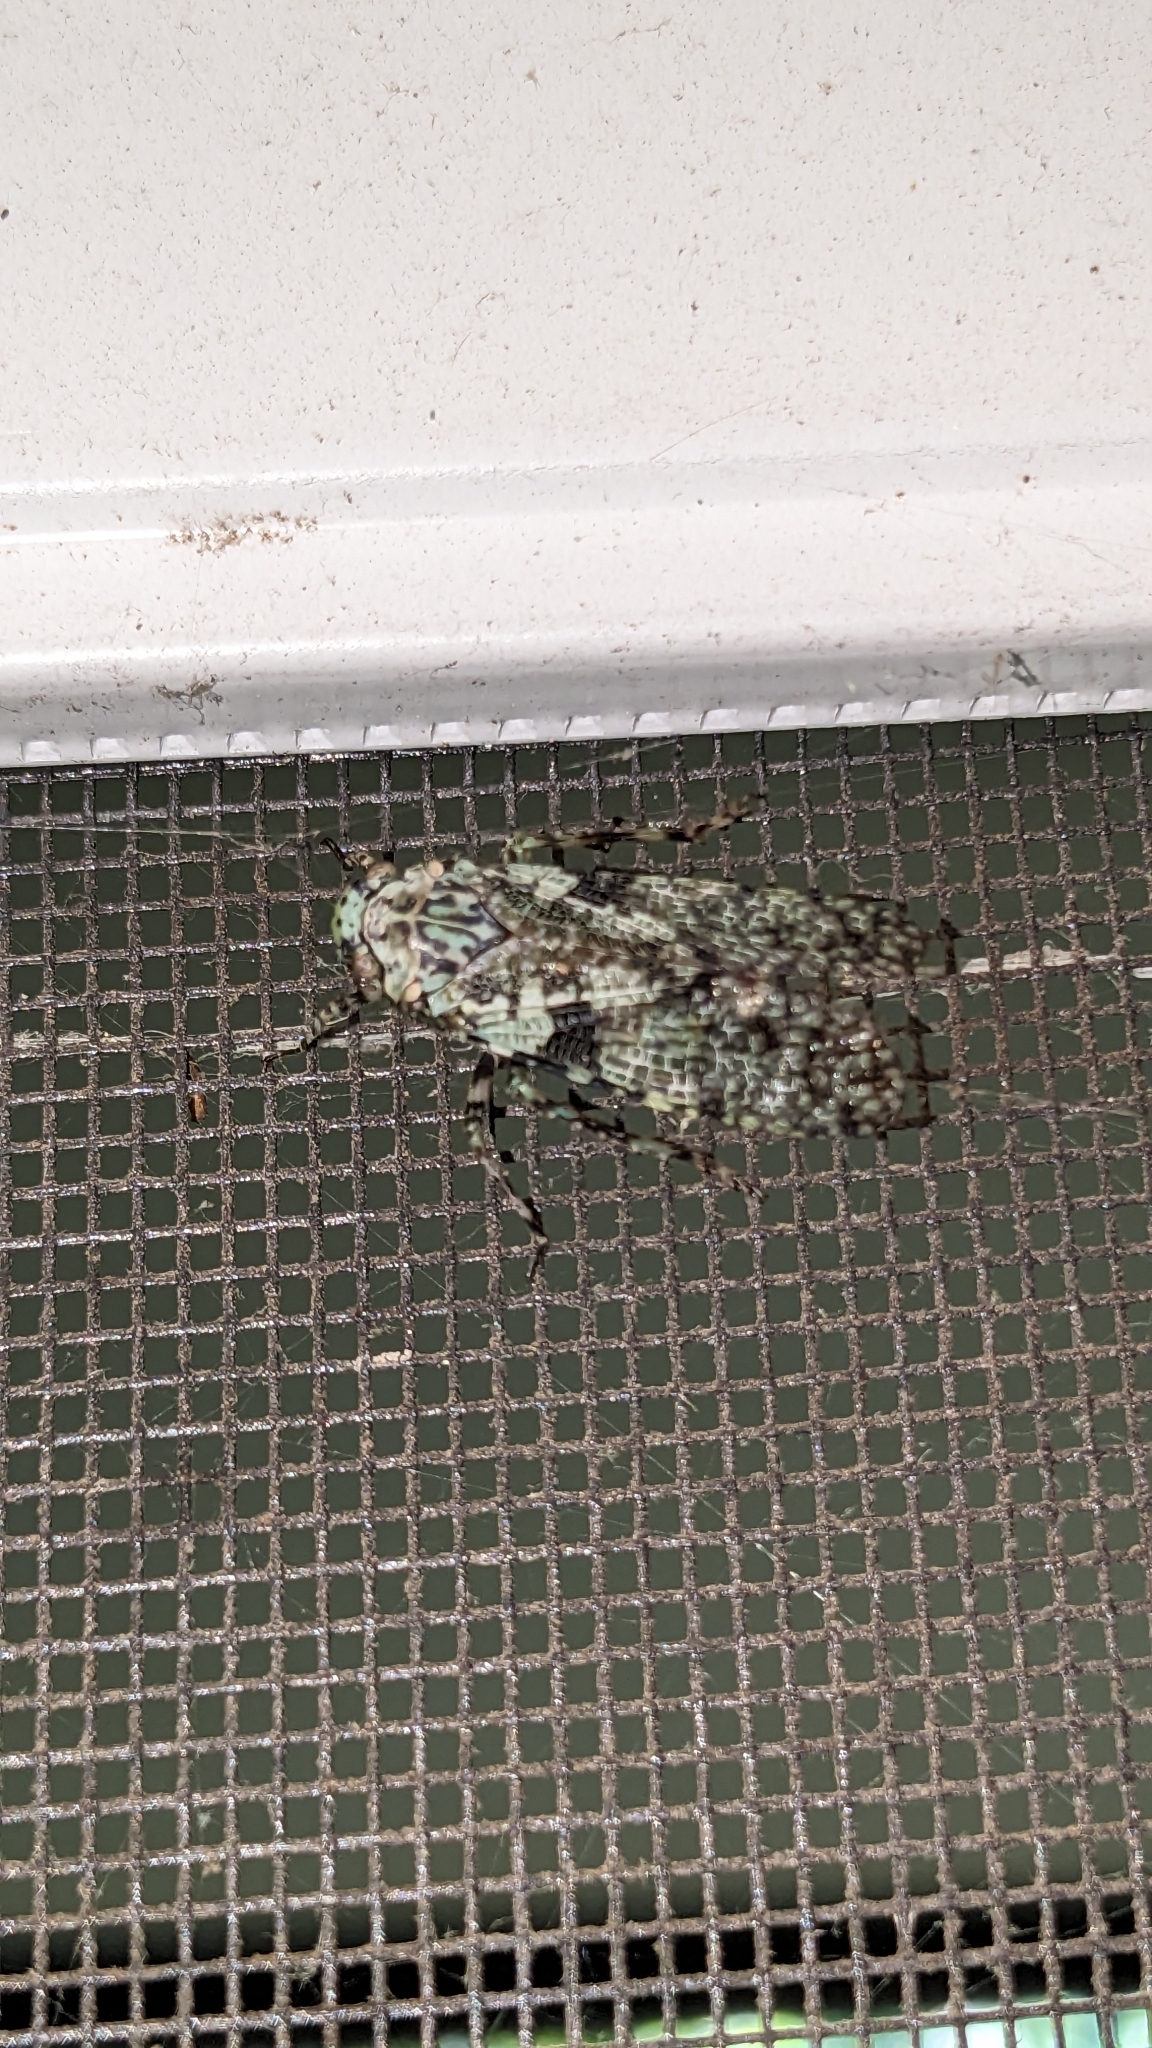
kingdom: Animalia
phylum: Arthropoda
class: Insecta
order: Hemiptera
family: Fulgoridae
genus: Calyptoproctus
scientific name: Calyptoproctus marmoratus
